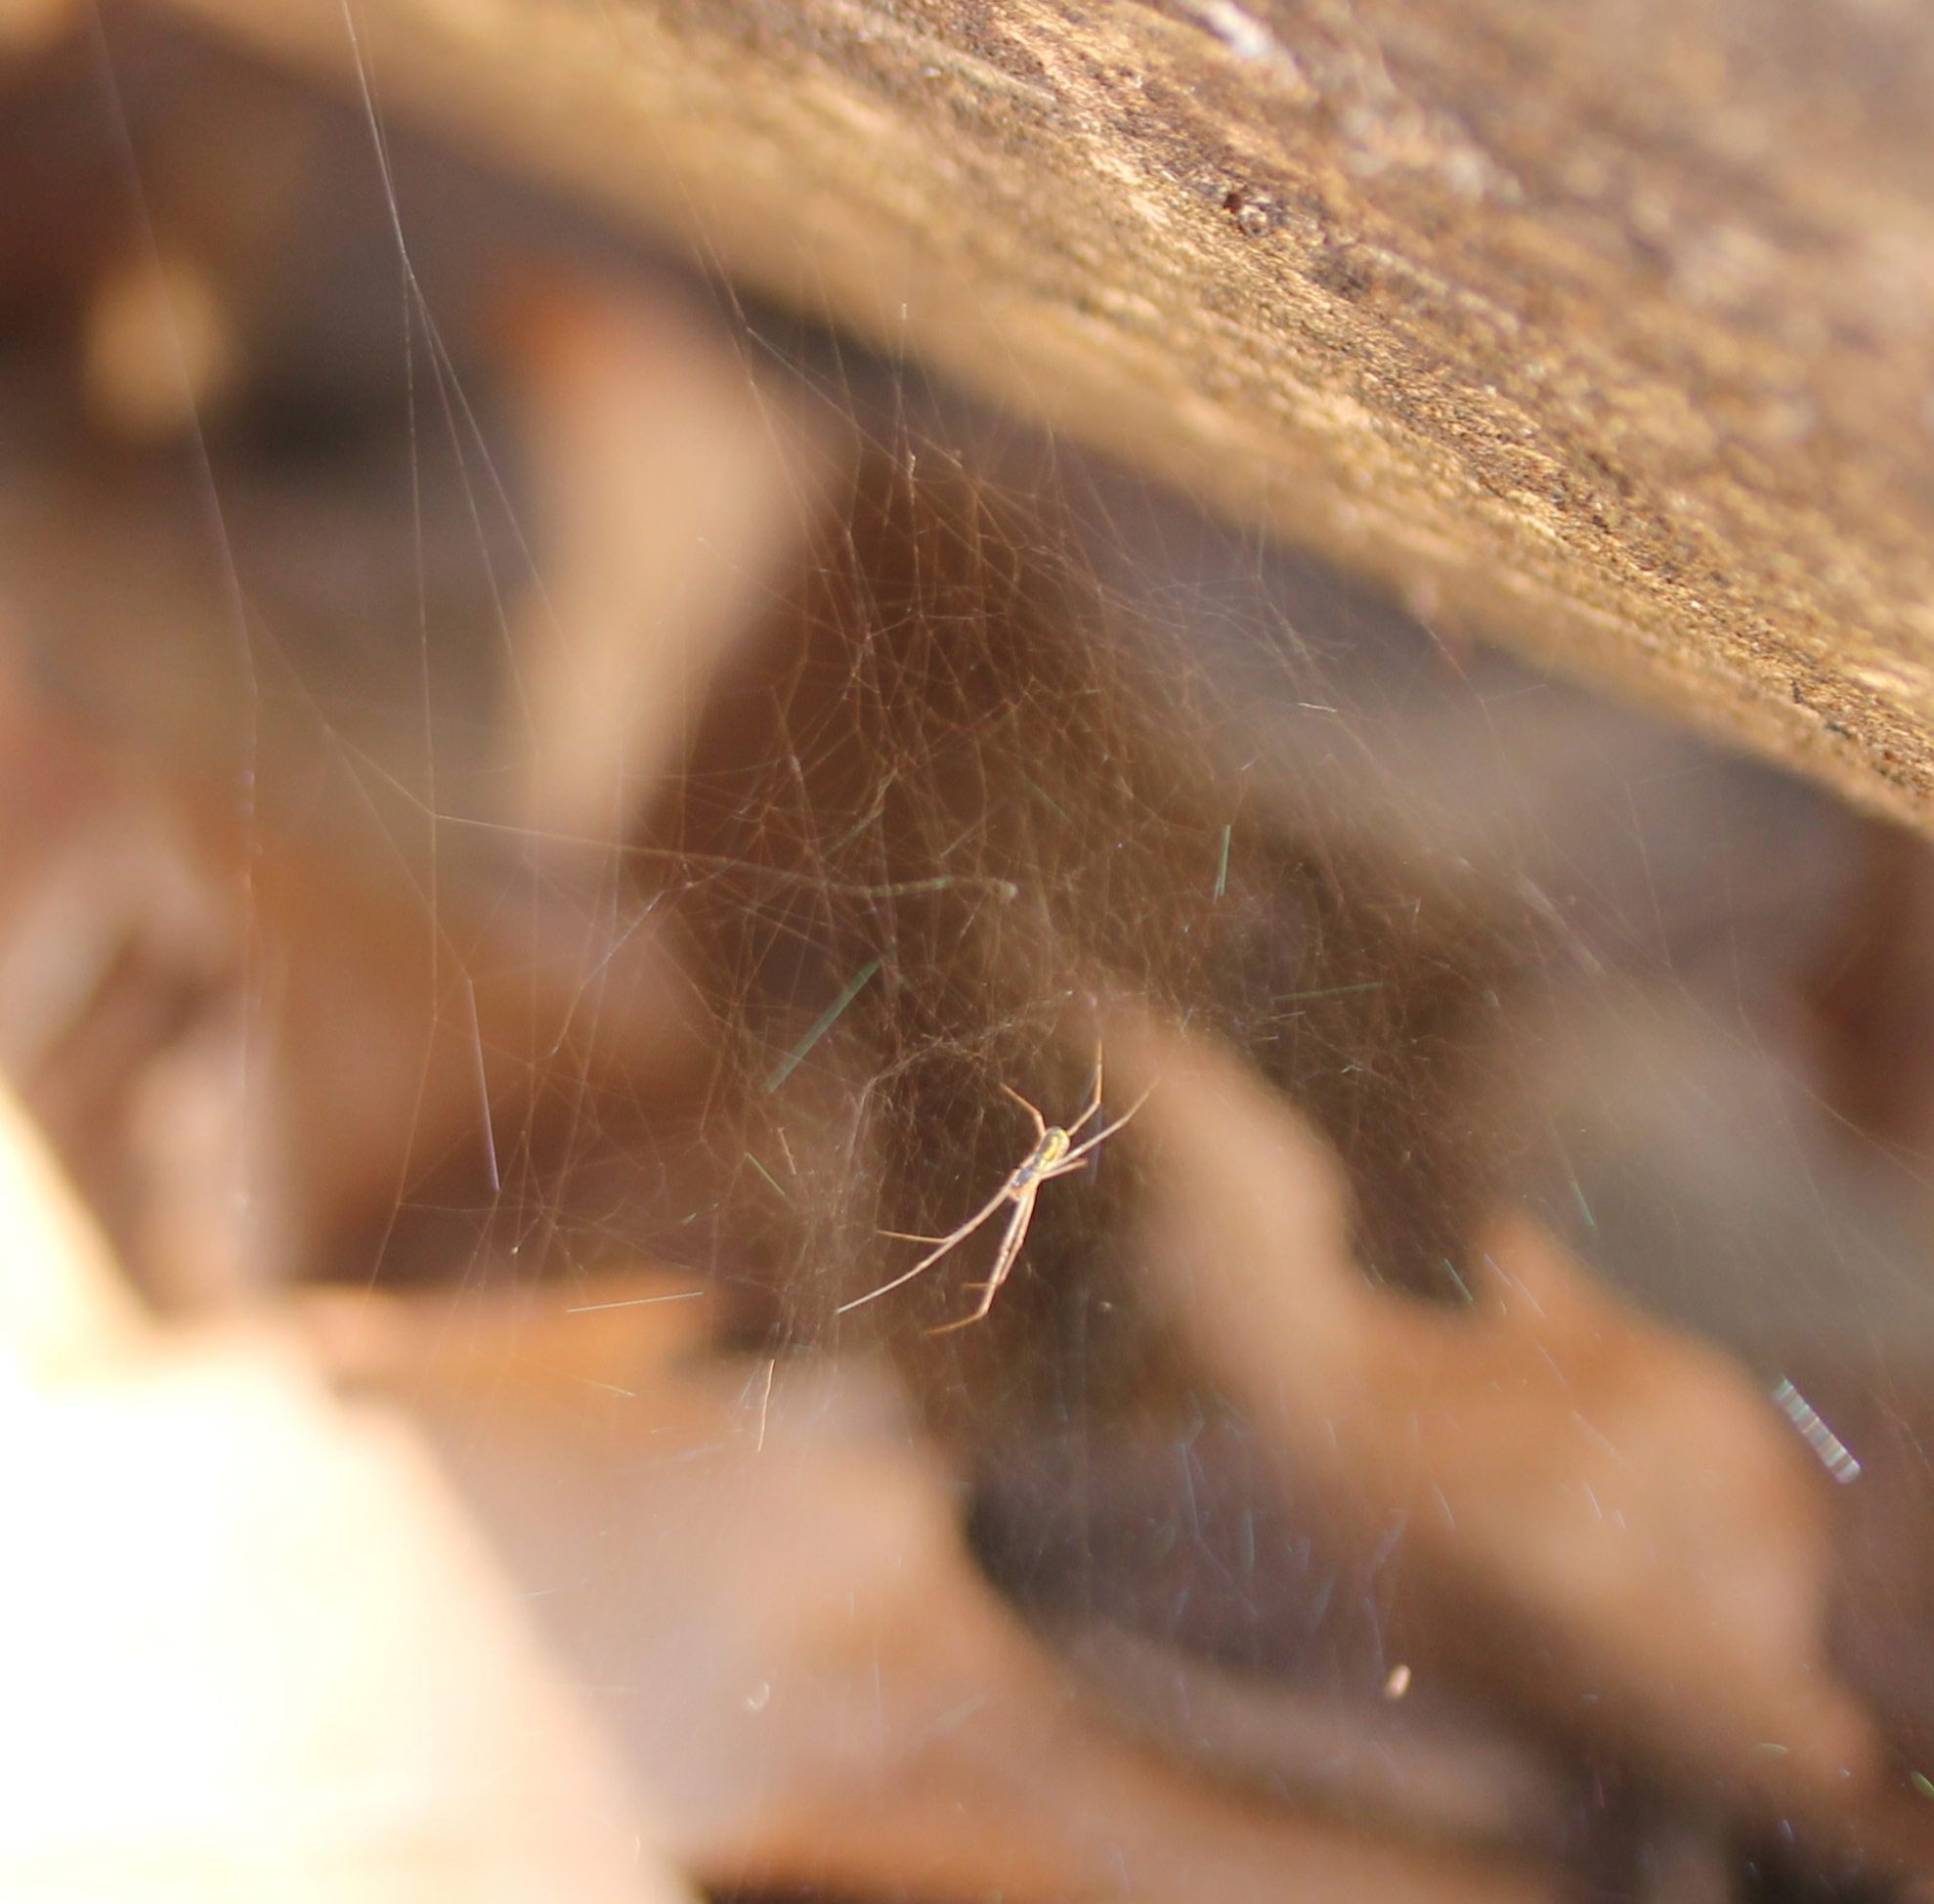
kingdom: Animalia
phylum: Arthropoda
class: Arachnida
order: Araneae
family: Linyphiidae
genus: Neriene
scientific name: Neriene radiata
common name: Filmy dome spider
